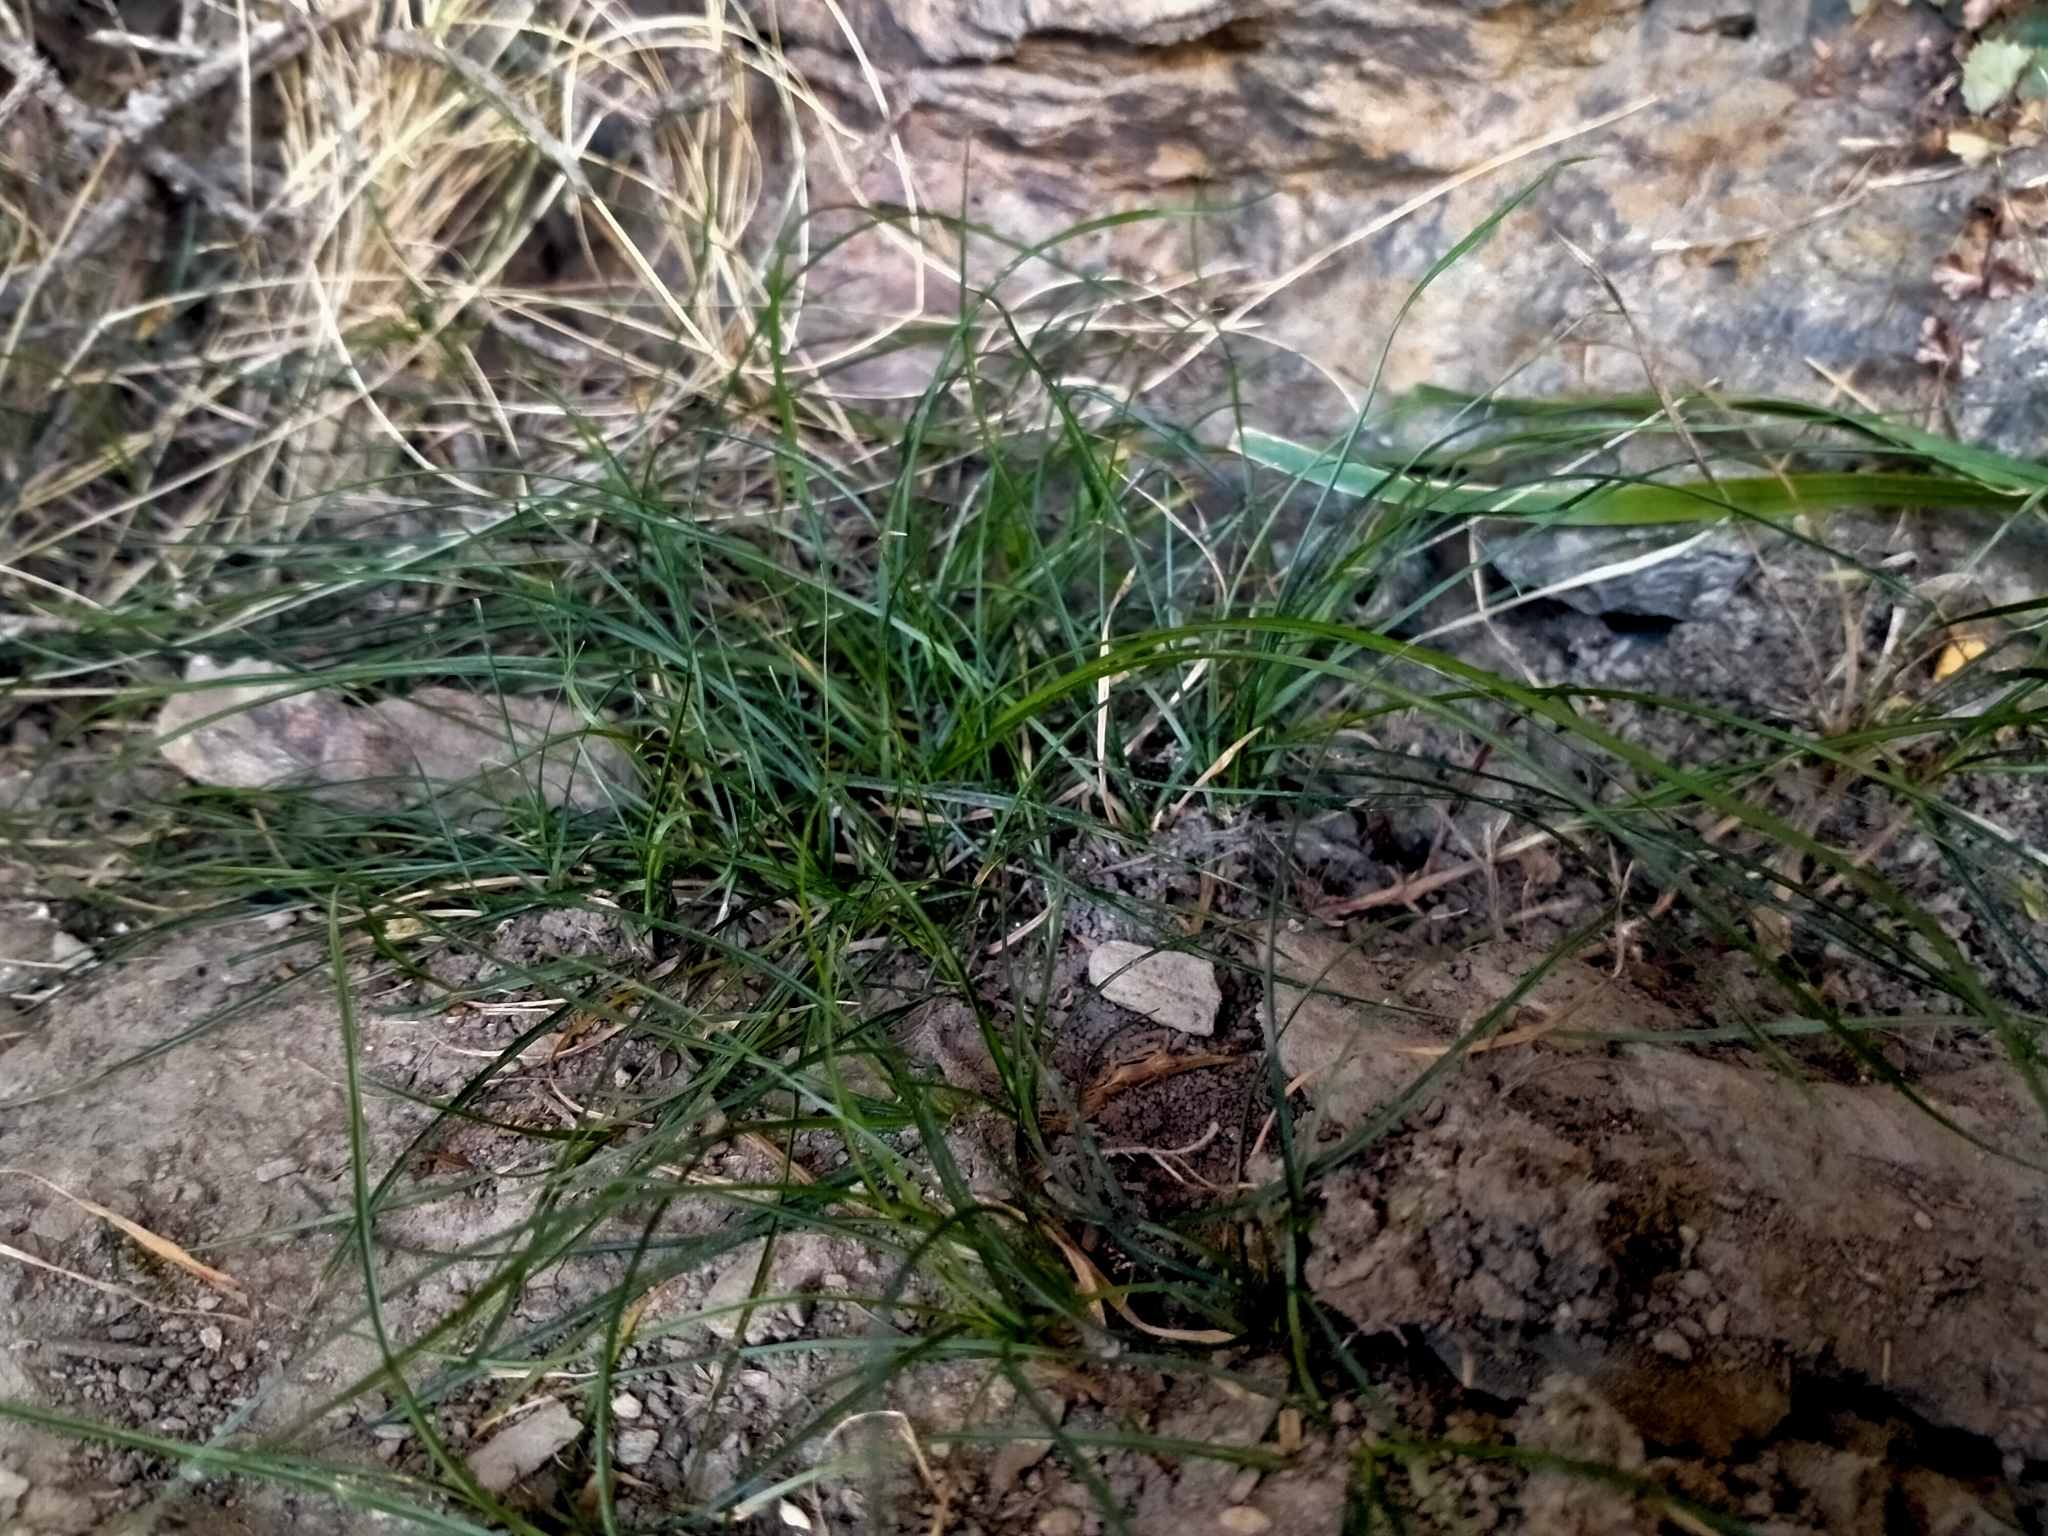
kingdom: Plantae
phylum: Tracheophyta
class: Liliopsida
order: Poales
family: Cyperaceae
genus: Carex
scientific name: Carex inopinata
